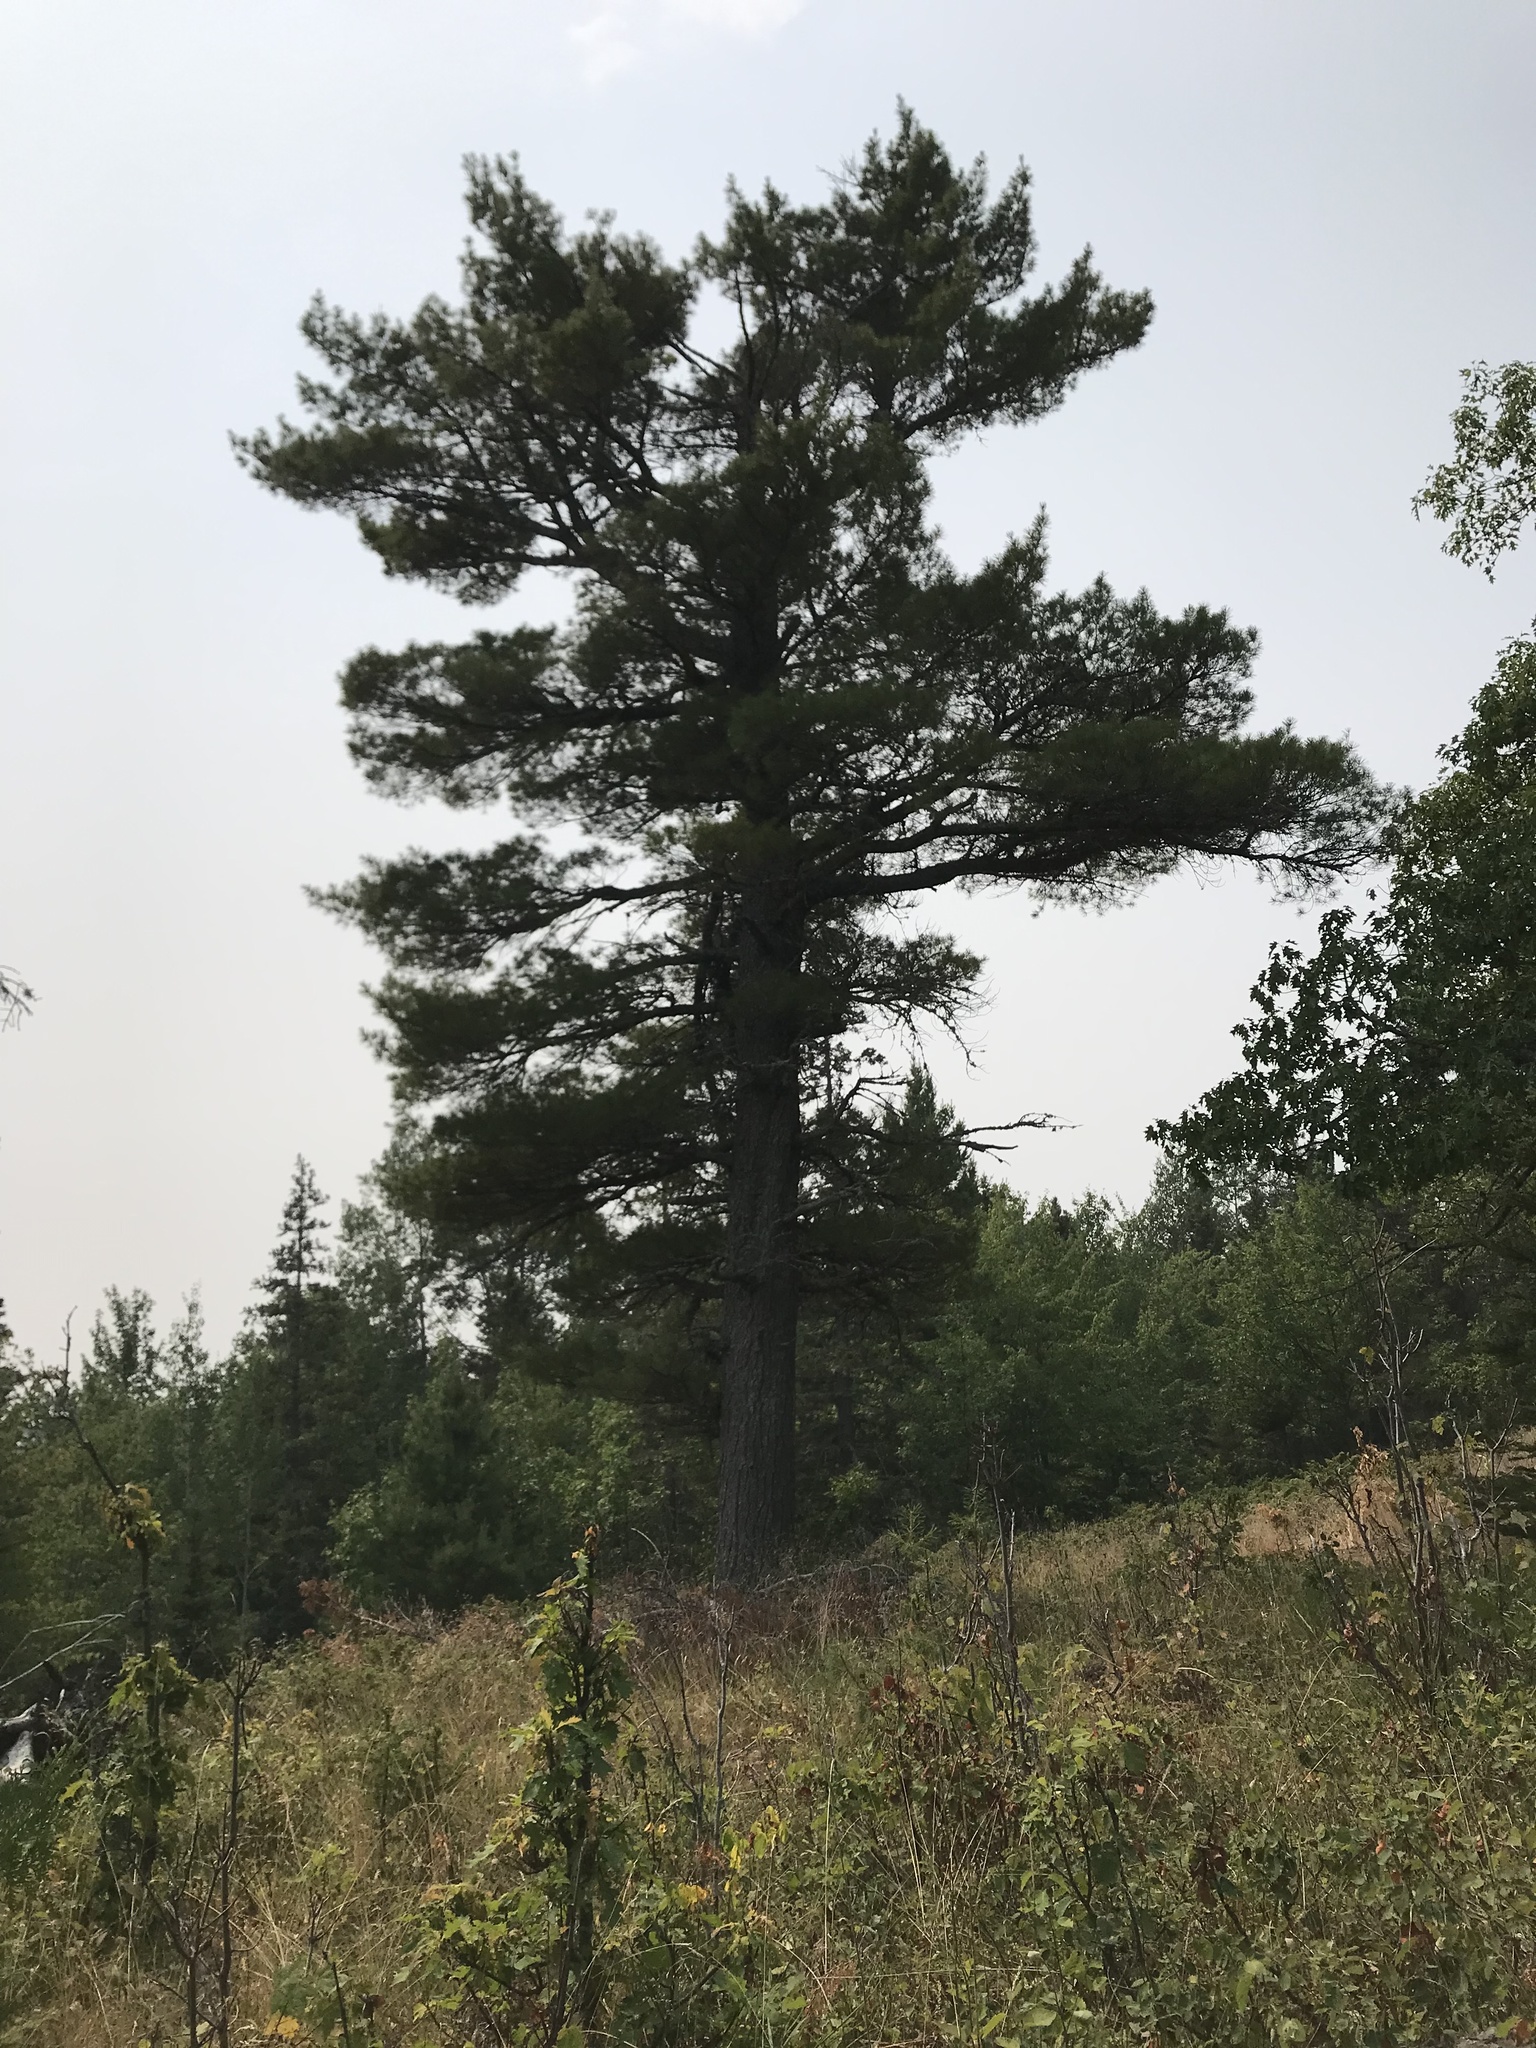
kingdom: Plantae
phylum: Tracheophyta
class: Pinopsida
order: Pinales
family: Pinaceae
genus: Pinus
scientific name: Pinus strobus
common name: Weymouth pine
